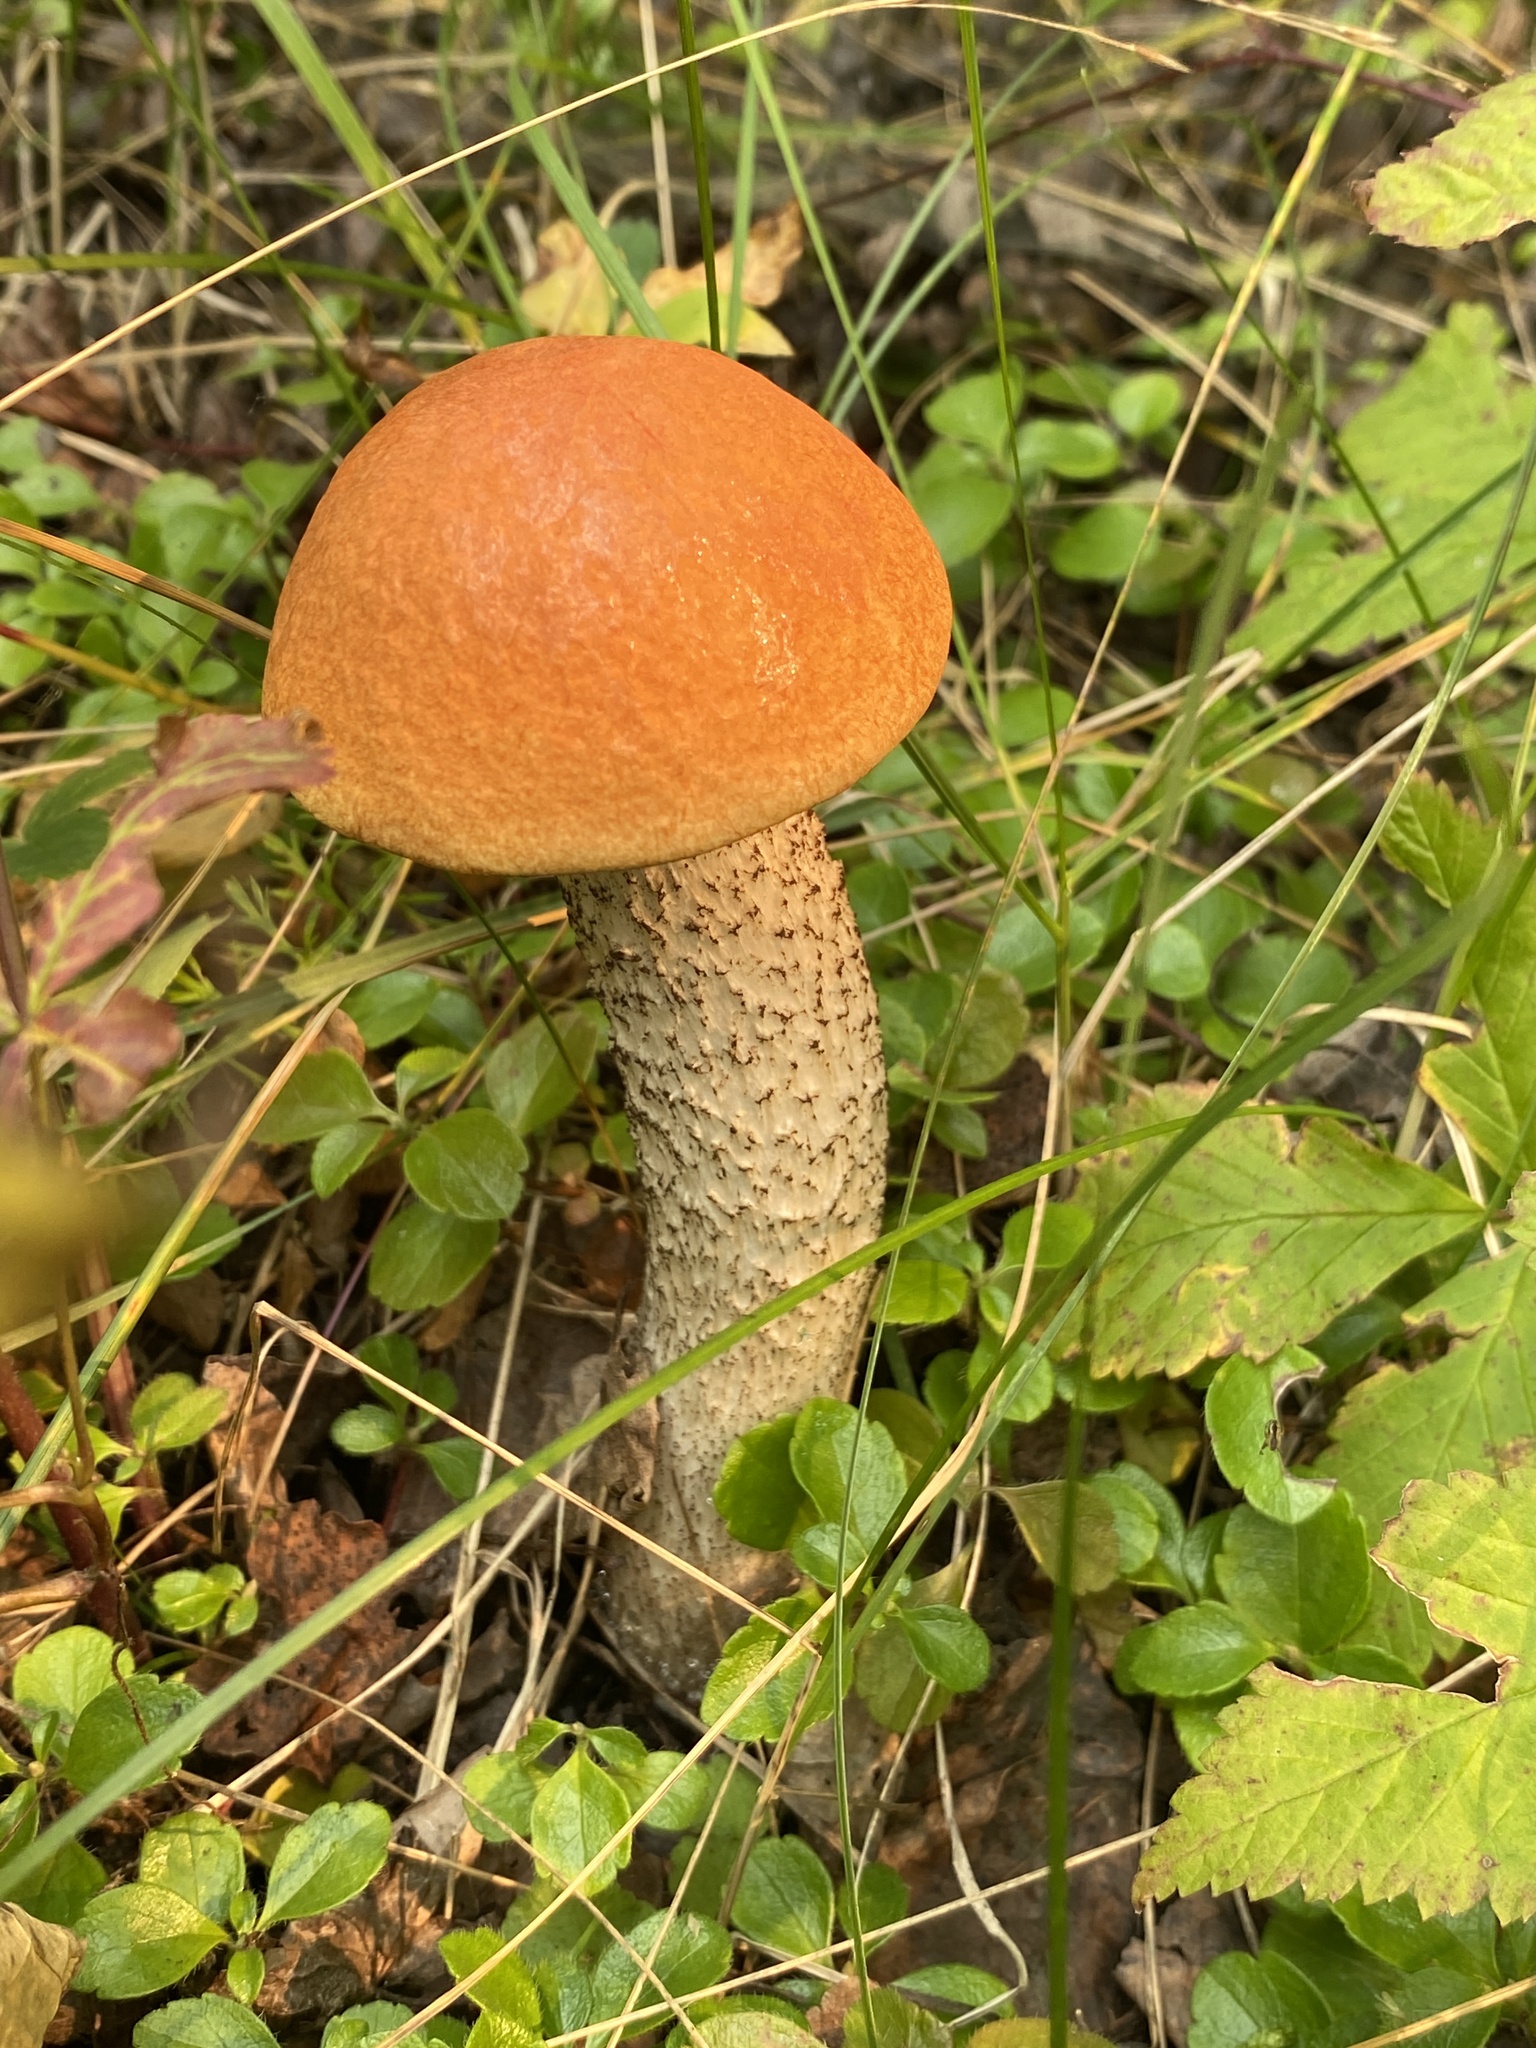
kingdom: Fungi
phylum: Basidiomycota
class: Agaricomycetes
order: Boletales
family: Boletaceae
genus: Leccinum
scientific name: Leccinum insigne
